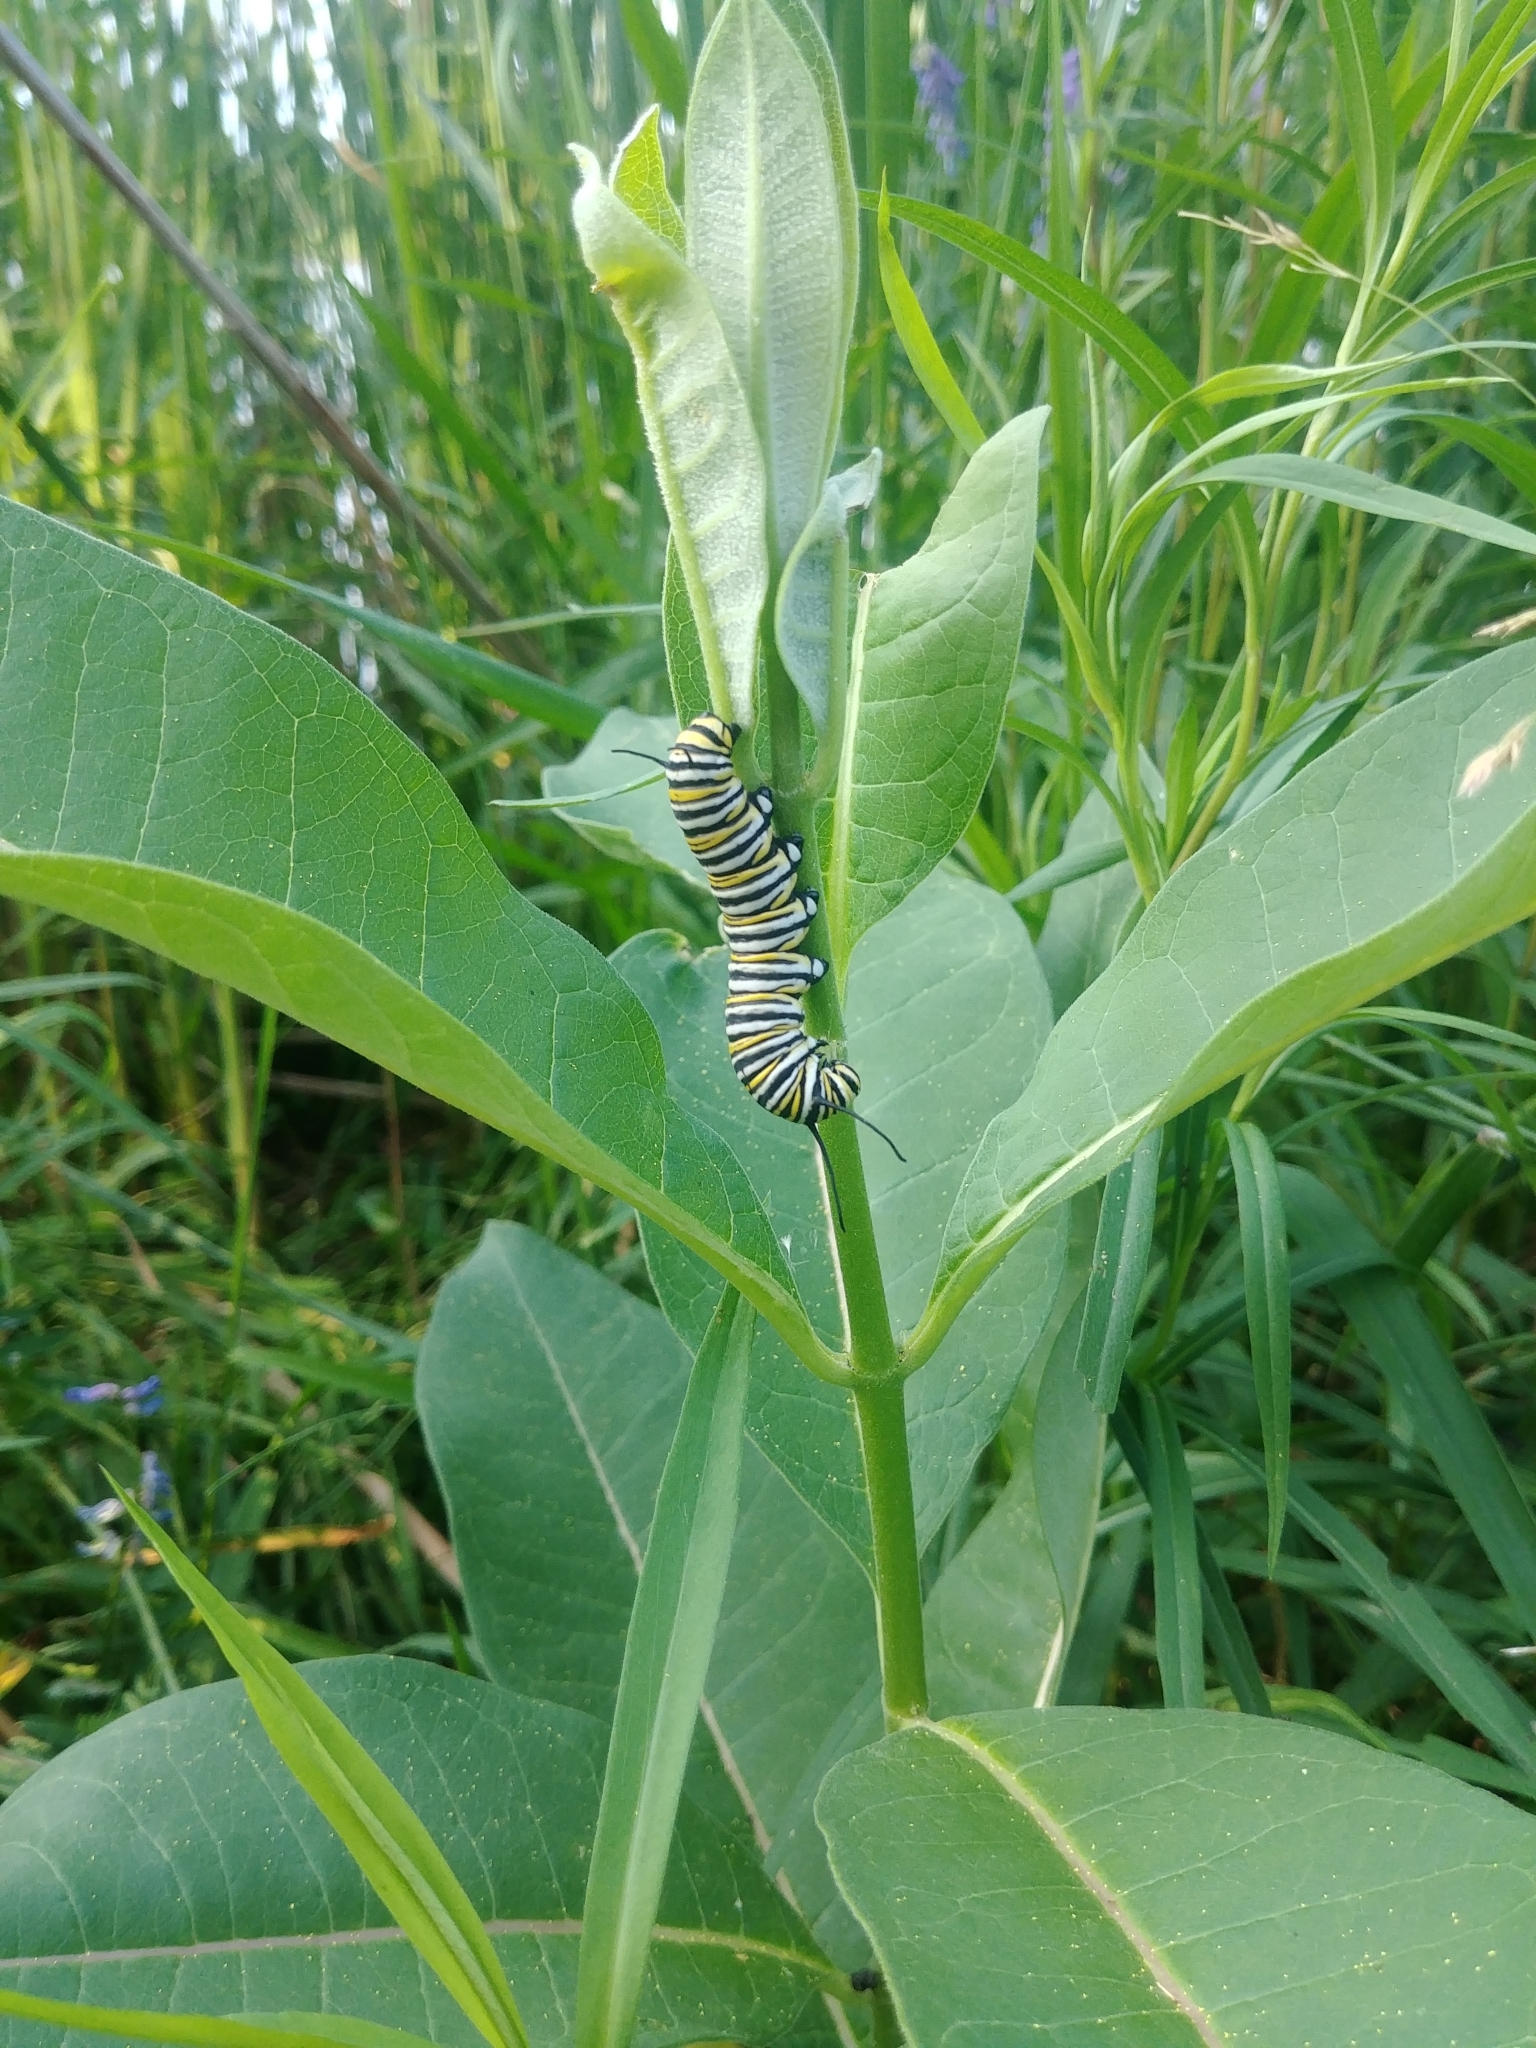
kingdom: Animalia
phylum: Arthropoda
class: Insecta
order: Lepidoptera
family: Nymphalidae
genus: Danaus
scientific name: Danaus plexippus
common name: Monarch
